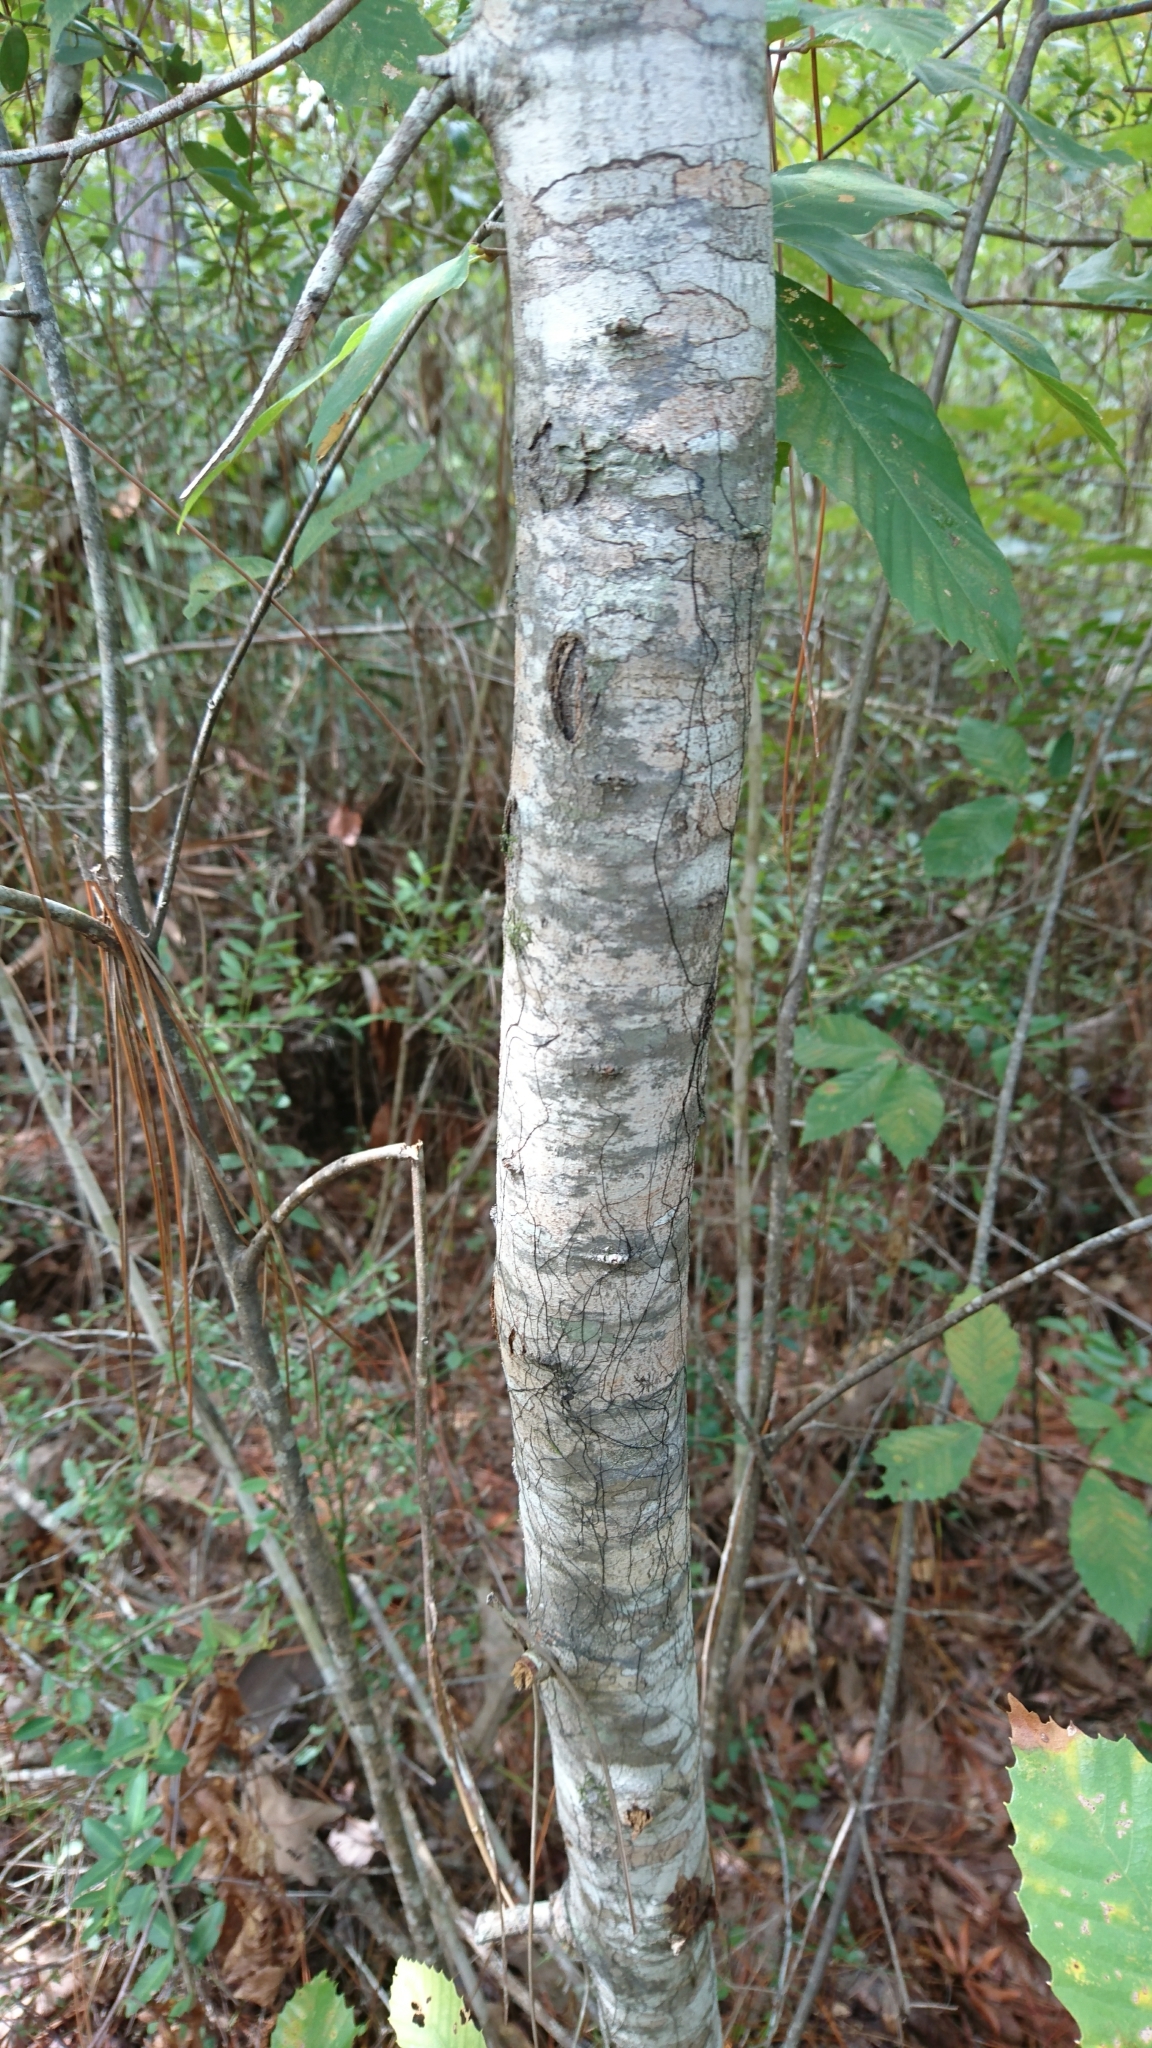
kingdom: Plantae
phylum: Tracheophyta
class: Magnoliopsida
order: Fagales
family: Fagaceae
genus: Castanea
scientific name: Castanea pumila
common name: Chinkapin
